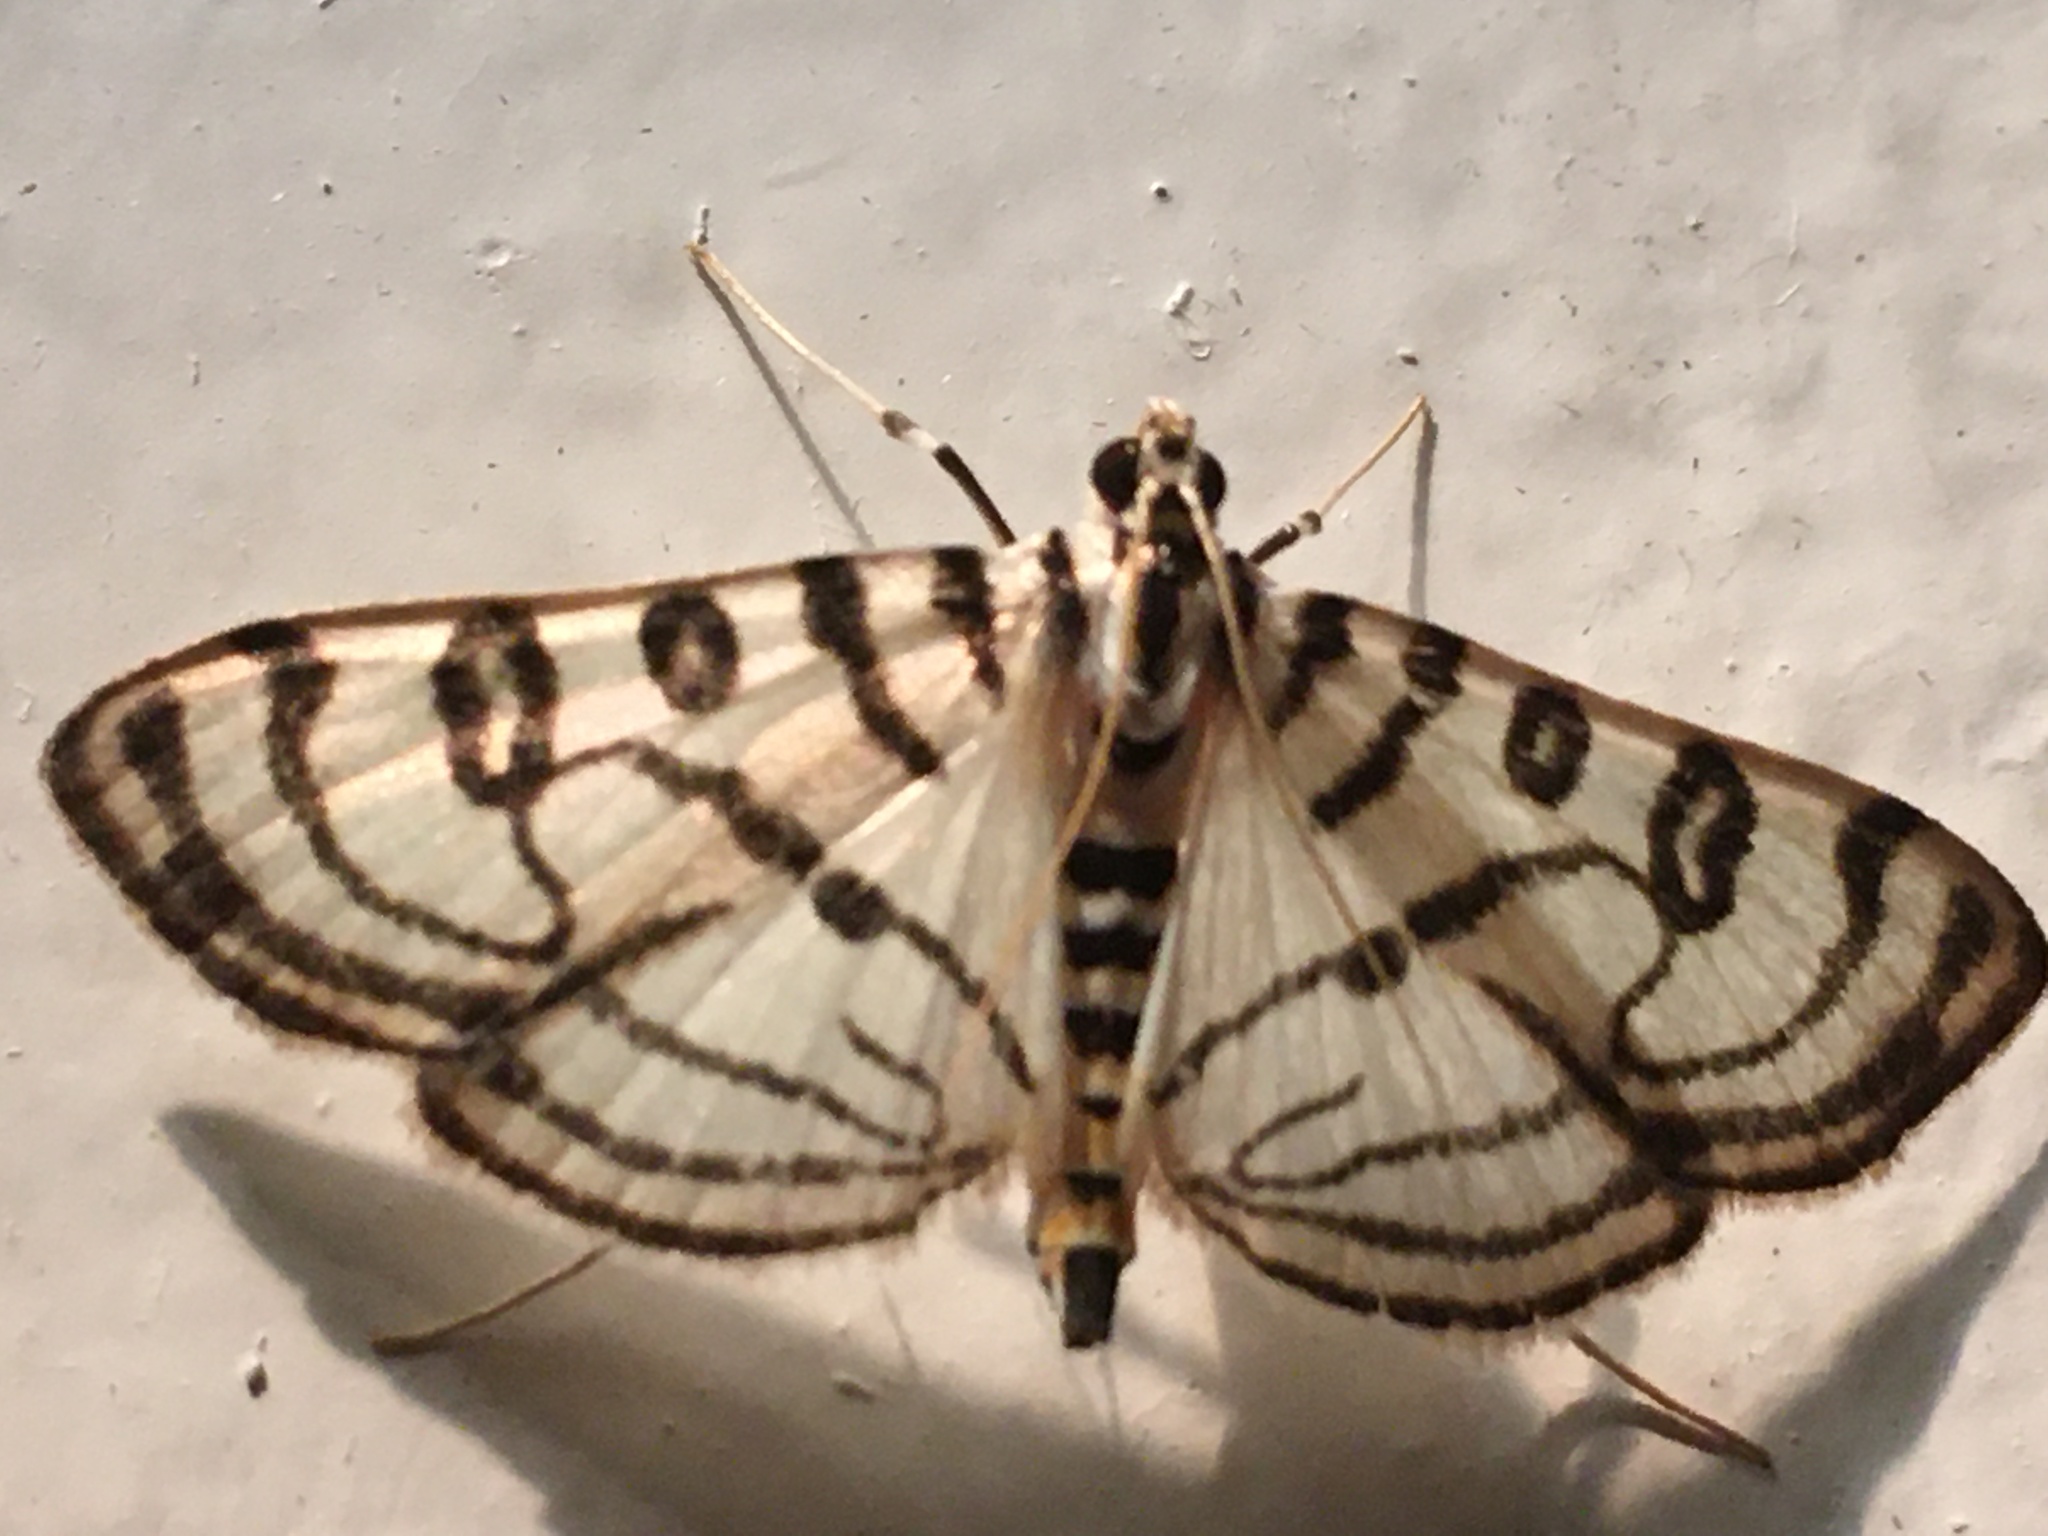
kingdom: Animalia
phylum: Arthropoda
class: Insecta
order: Lepidoptera
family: Crambidae
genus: Conchylodes
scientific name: Conchylodes concinnalis
